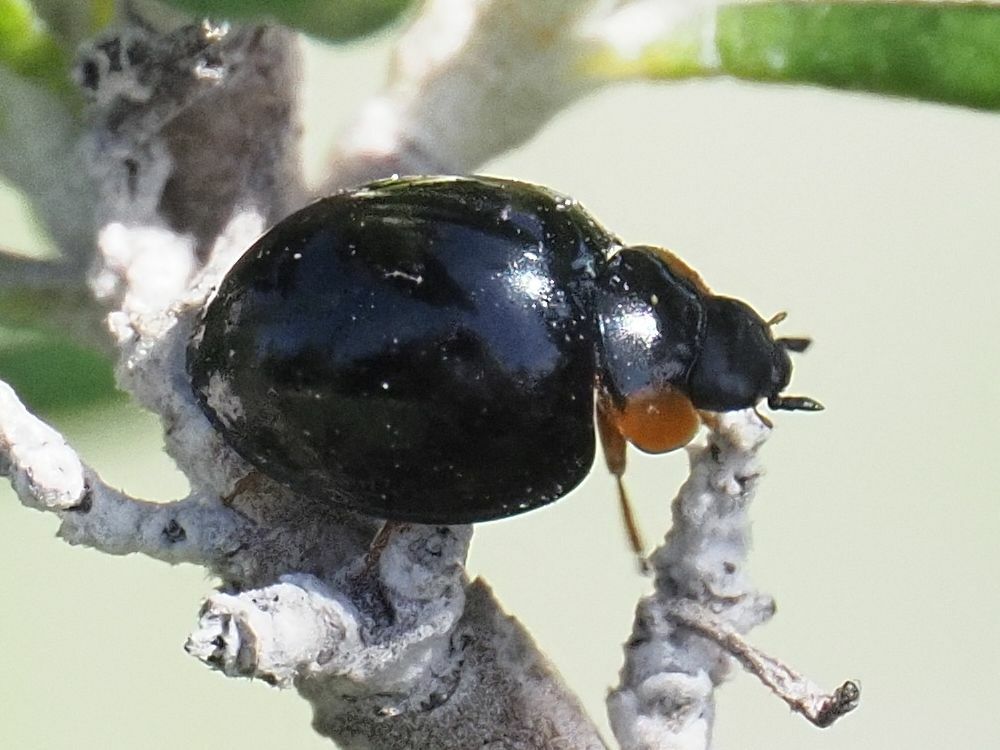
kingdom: Animalia
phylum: Arthropoda
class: Insecta
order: Coleoptera
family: Coccinellidae
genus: Parexochomus
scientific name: Parexochomus nigromaculatus
